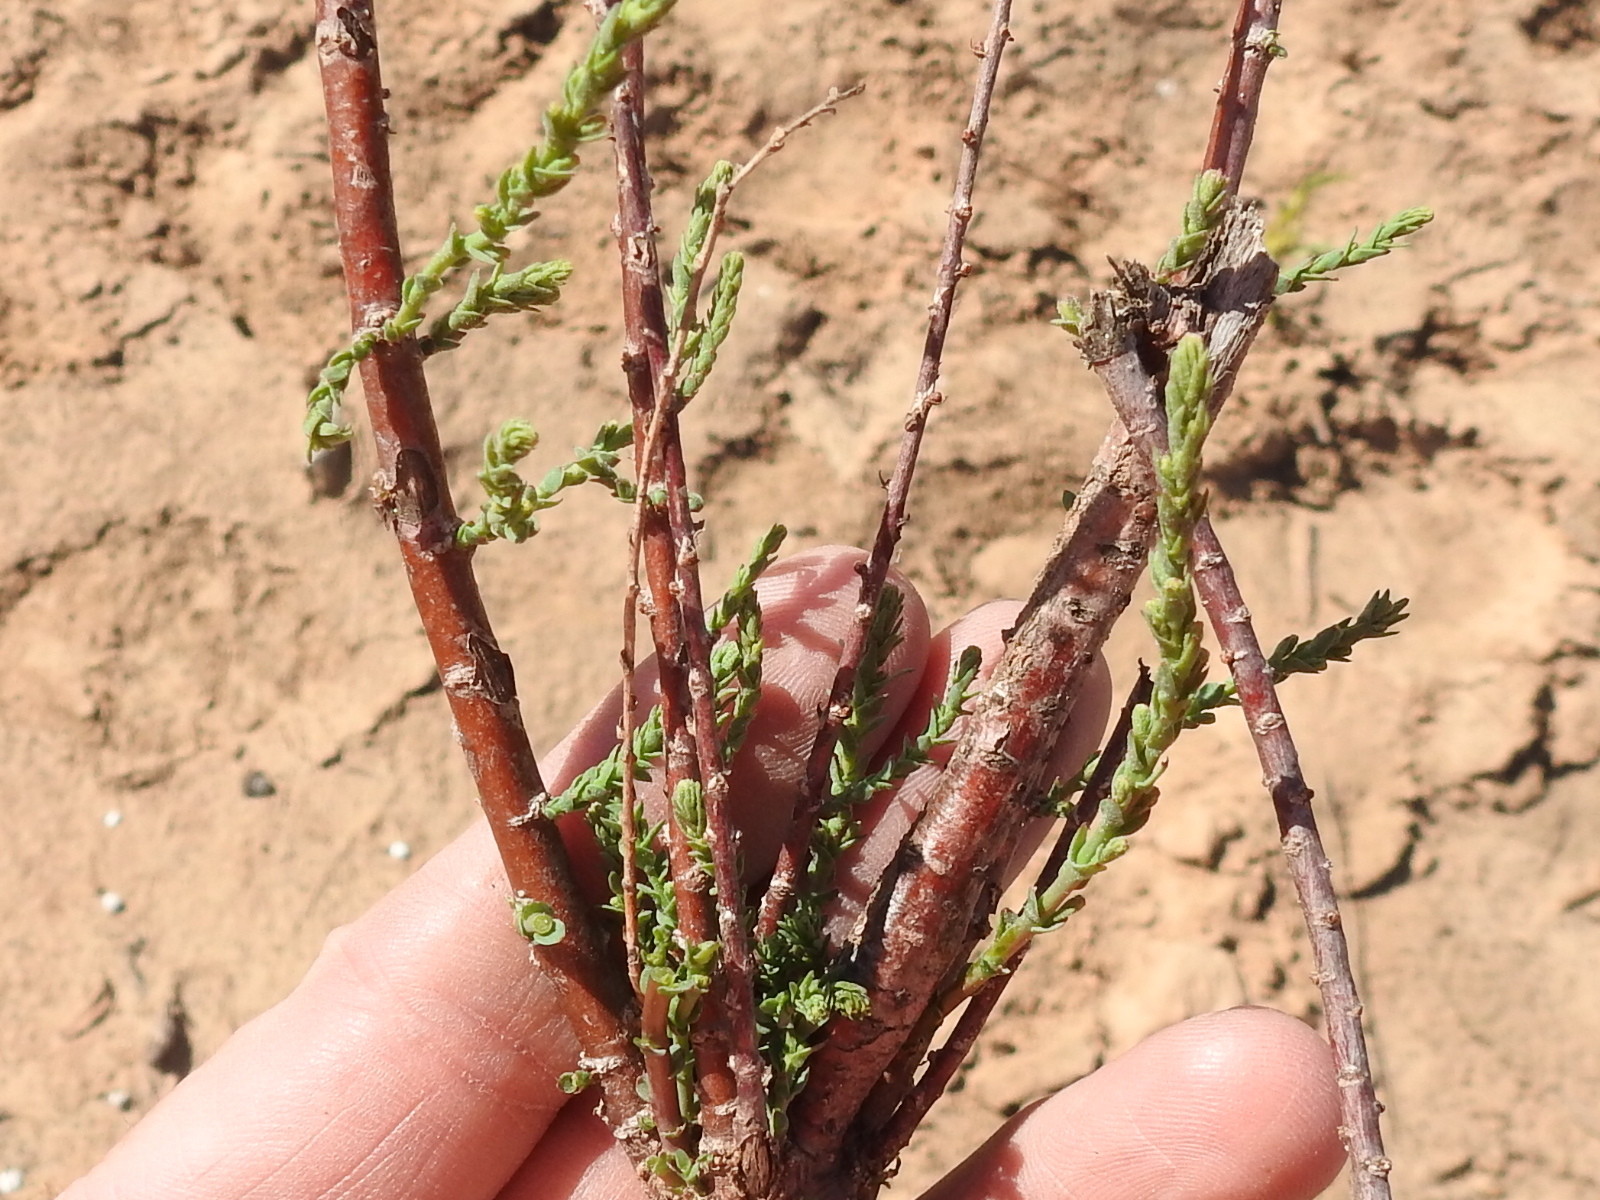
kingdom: Plantae
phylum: Tracheophyta
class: Magnoliopsida
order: Caryophyllales
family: Tamaricaceae
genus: Tamarix
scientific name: Tamarix
